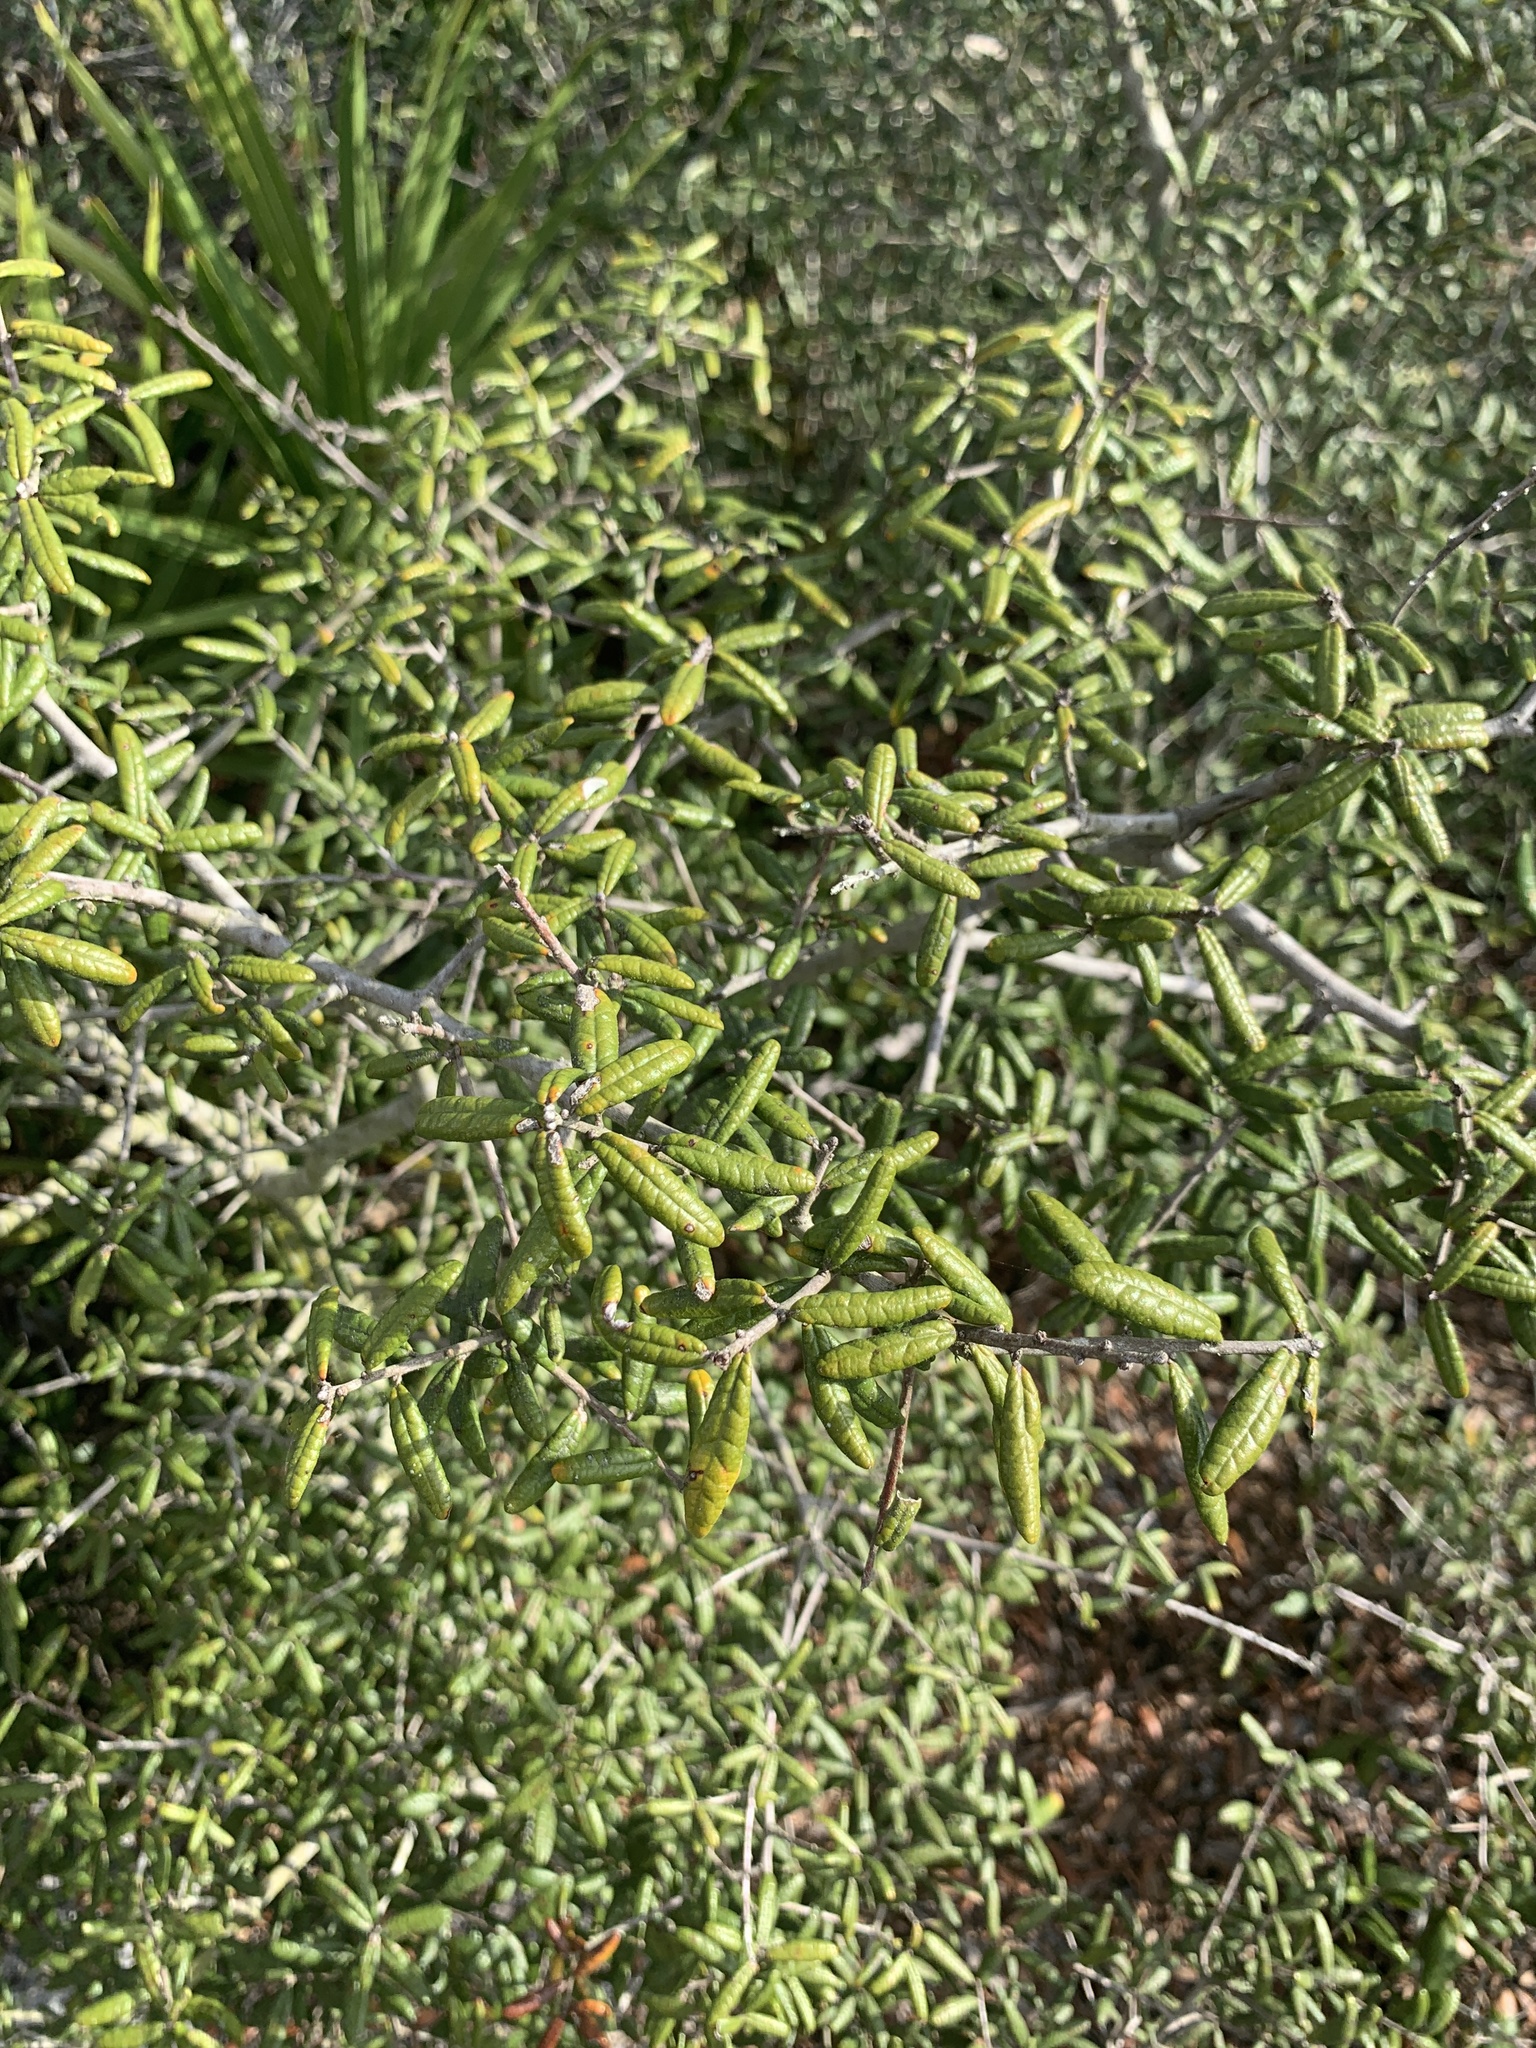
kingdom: Plantae
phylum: Tracheophyta
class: Magnoliopsida
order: Fagales
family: Fagaceae
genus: Quercus
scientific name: Quercus geminata
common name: Sand live oak
